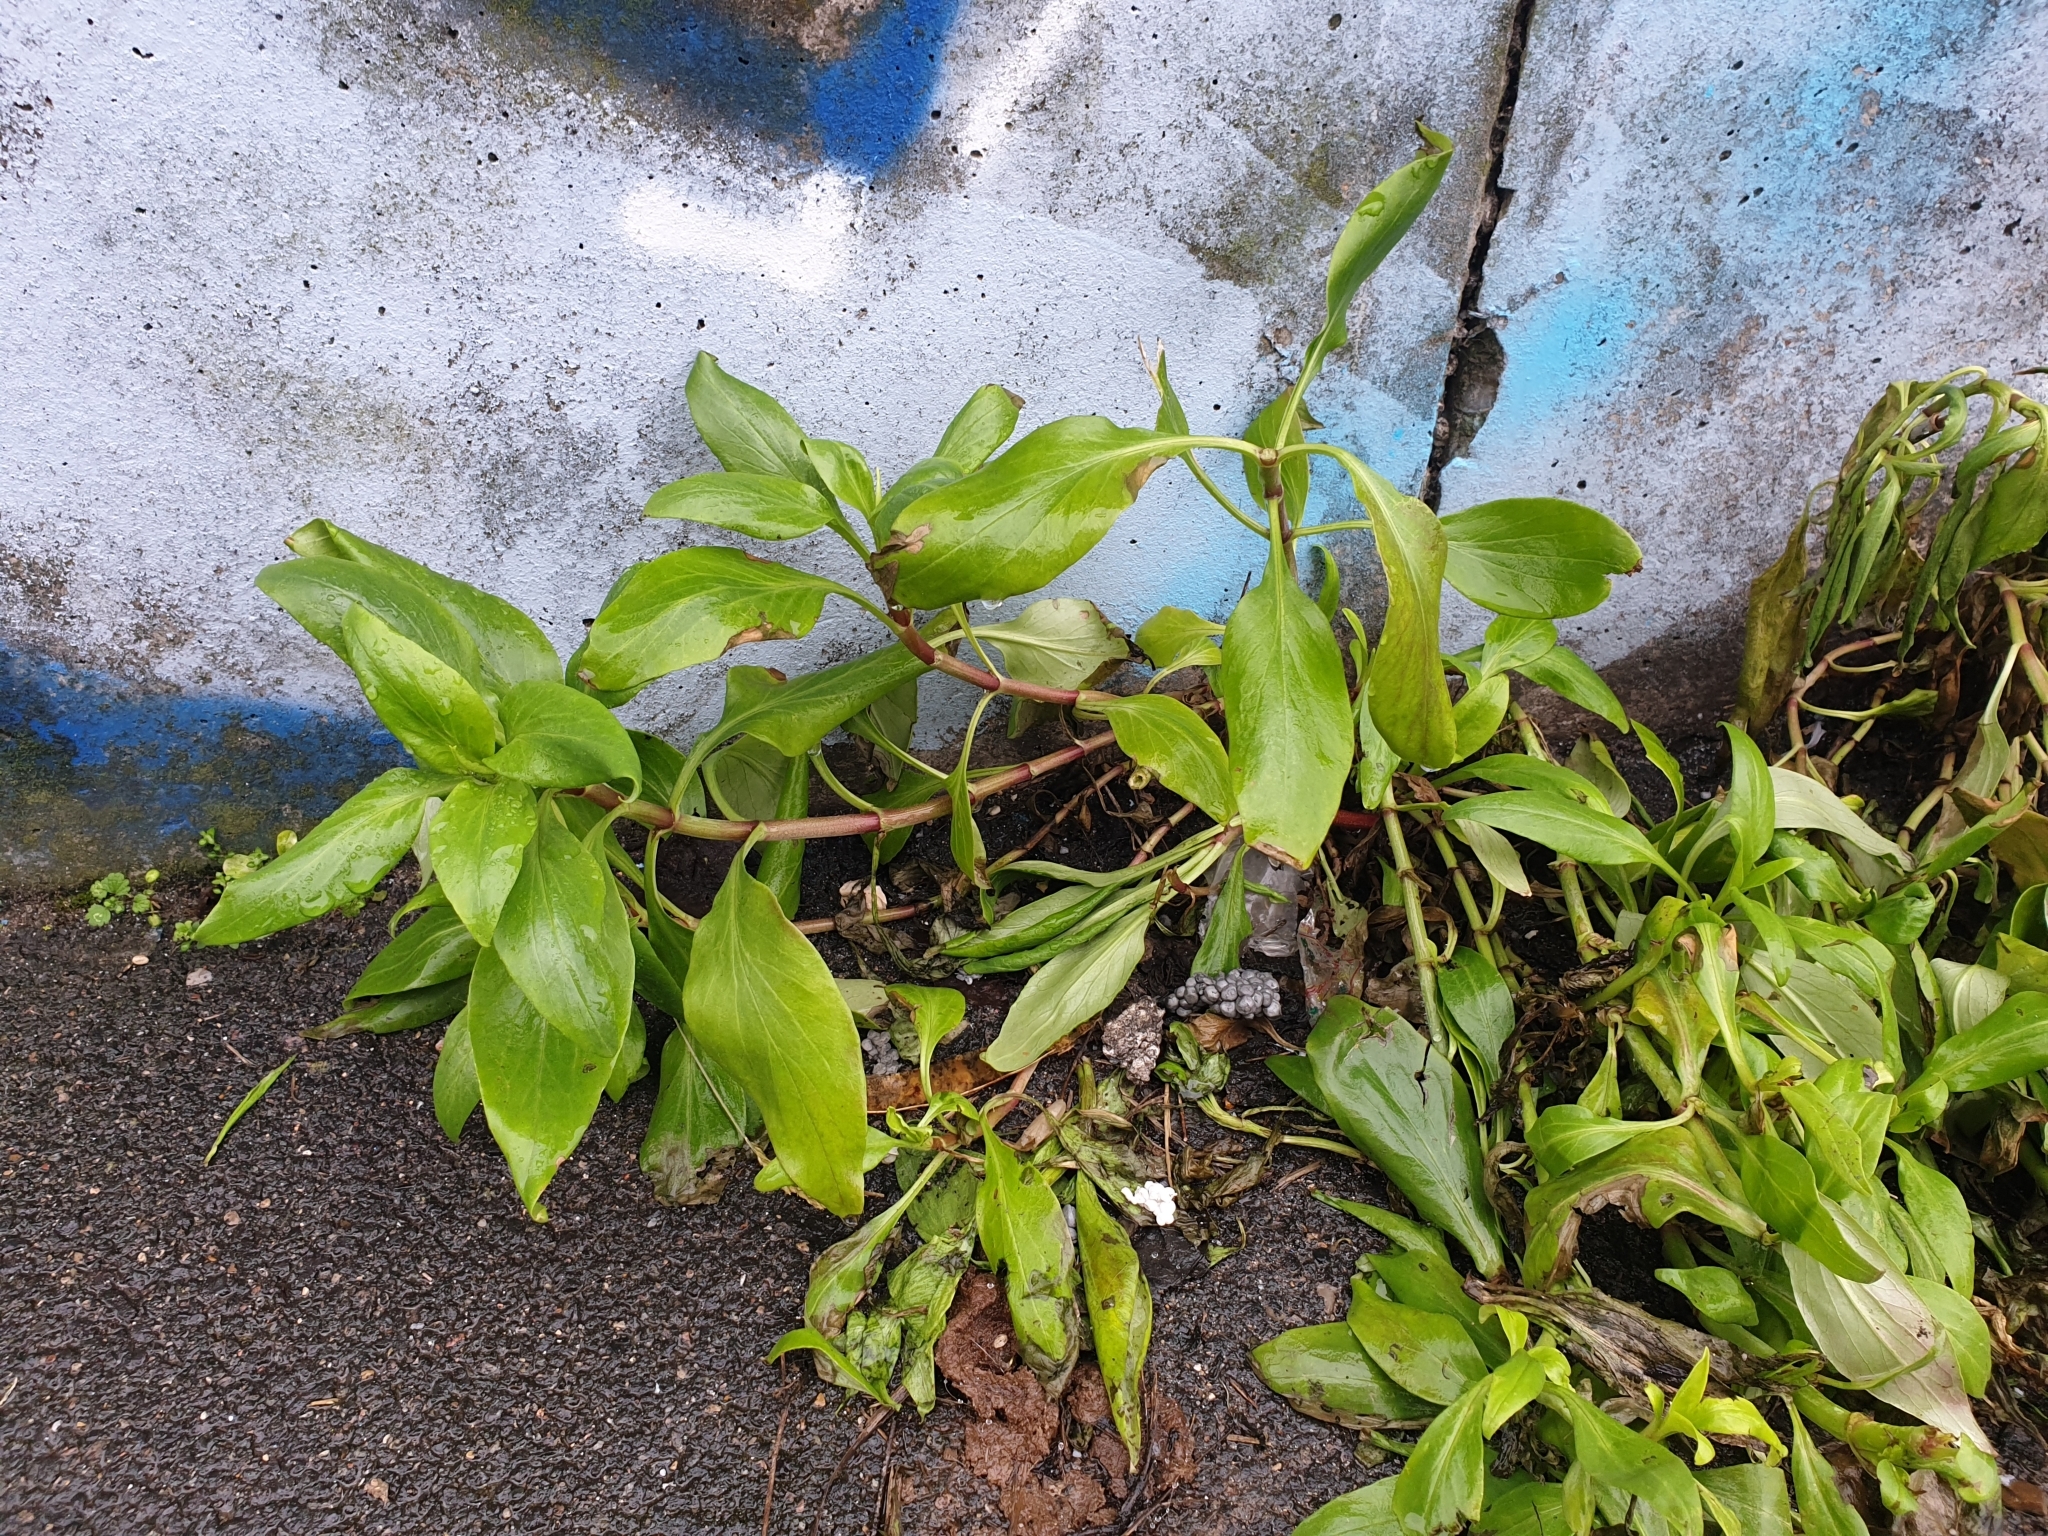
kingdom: Plantae
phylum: Tracheophyta
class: Magnoliopsida
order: Dipsacales
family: Caprifoliaceae
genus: Centranthus
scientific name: Centranthus ruber
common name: Red valerian
